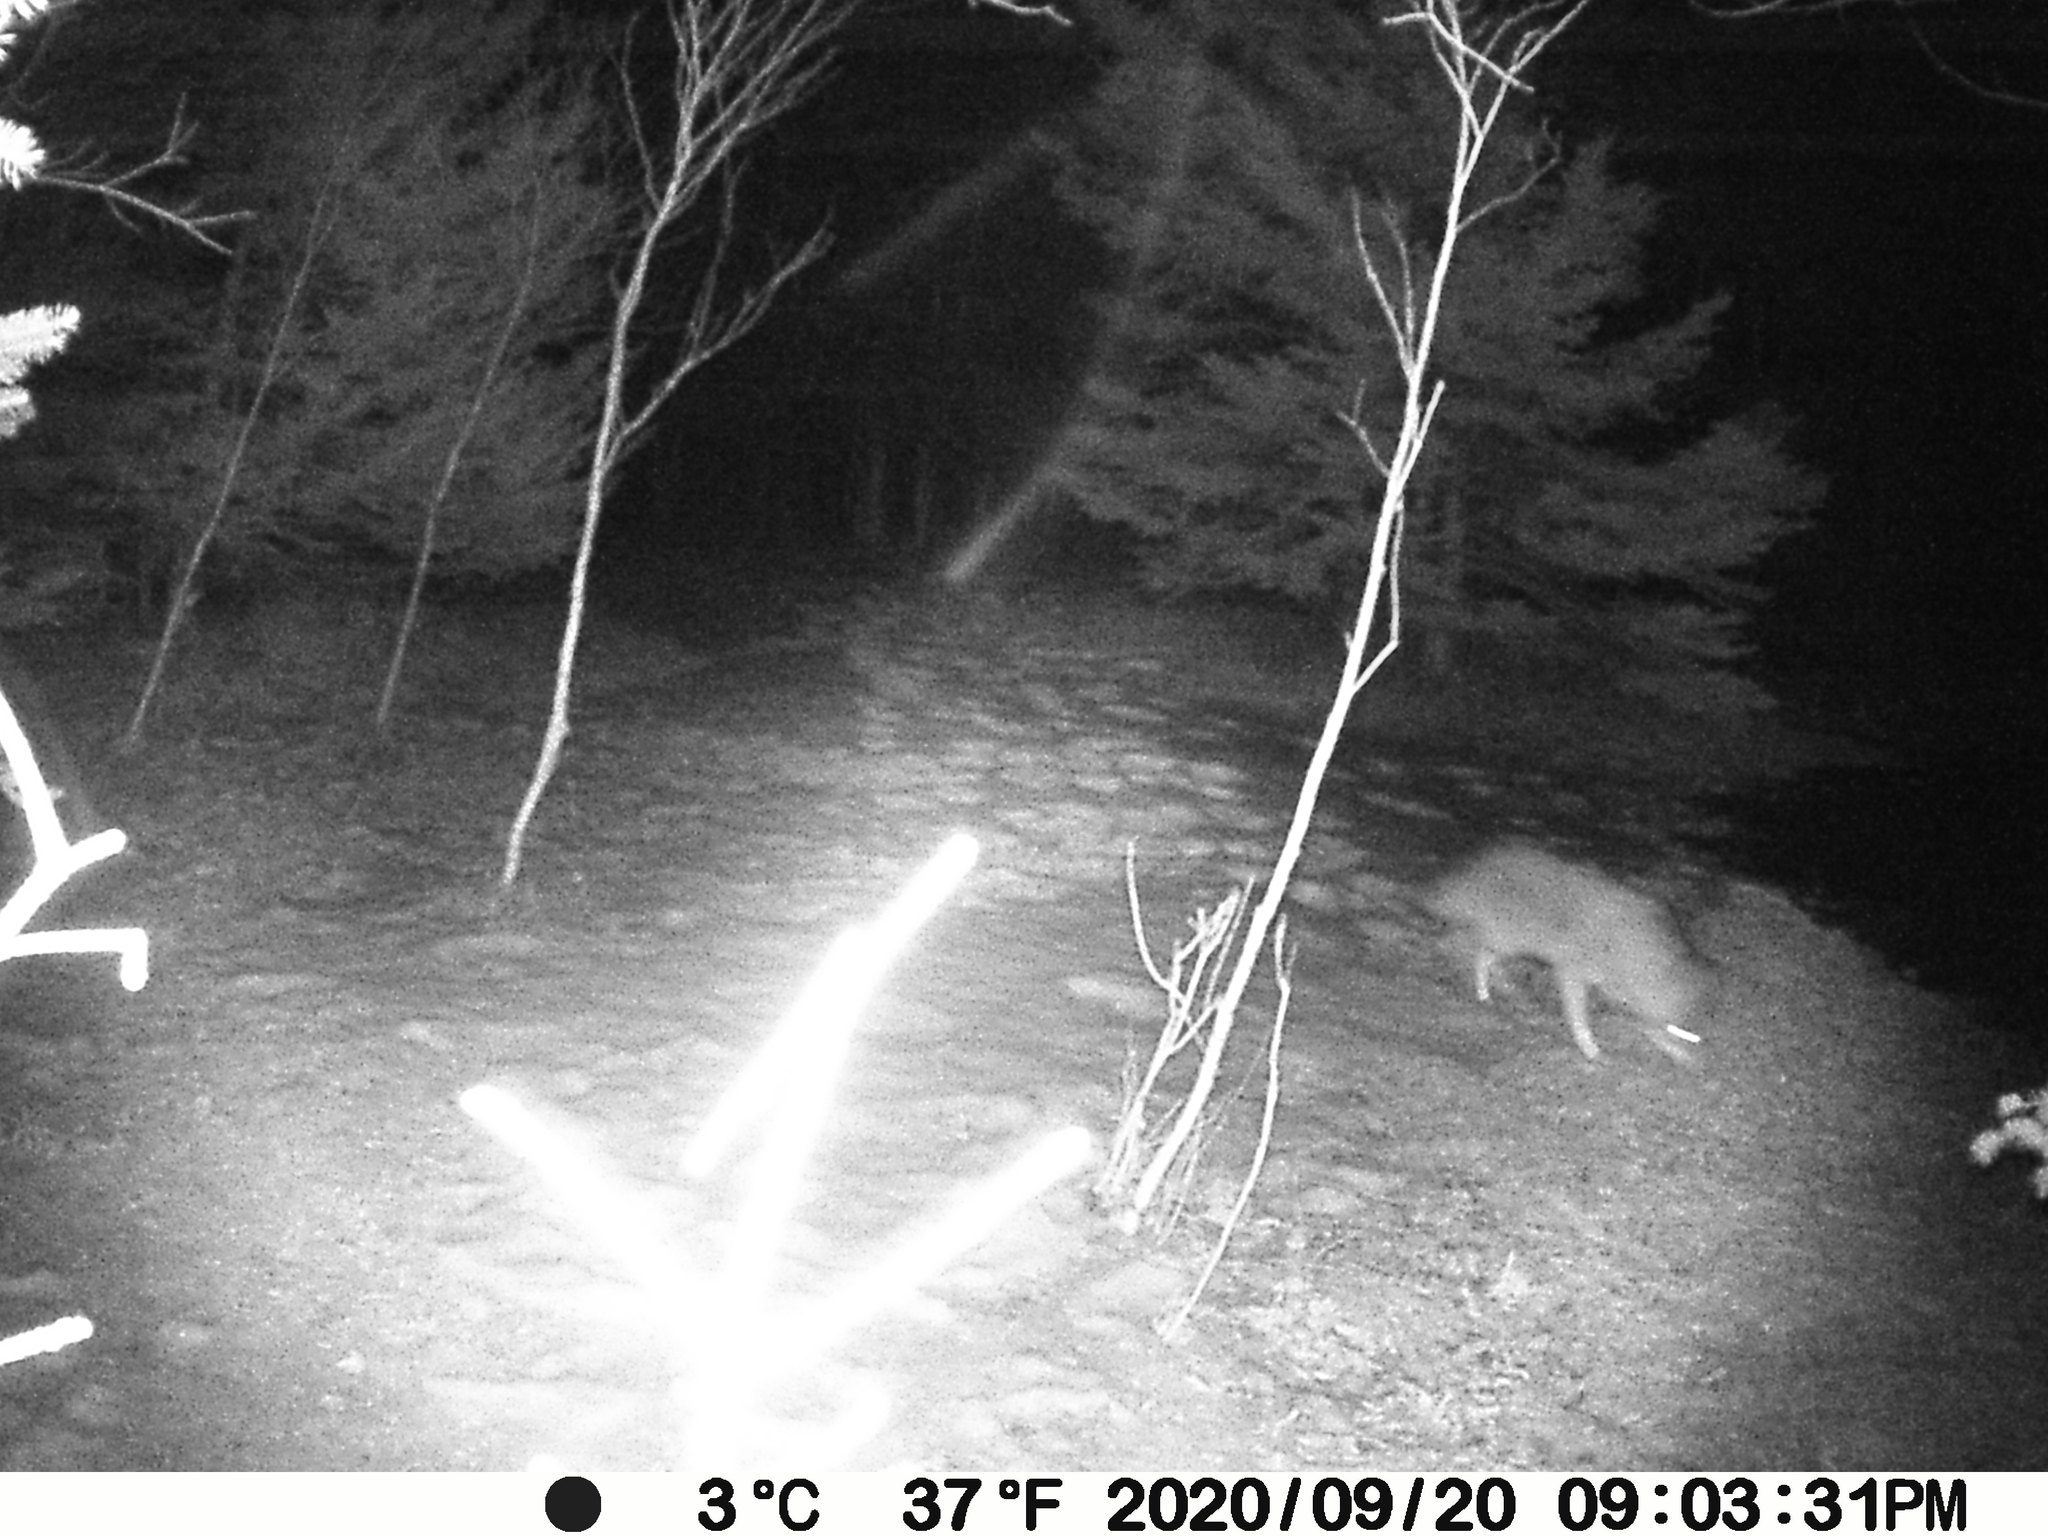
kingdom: Animalia
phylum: Chordata
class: Mammalia
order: Carnivora
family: Canidae
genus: Canis
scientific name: Canis latrans
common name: Coyote
